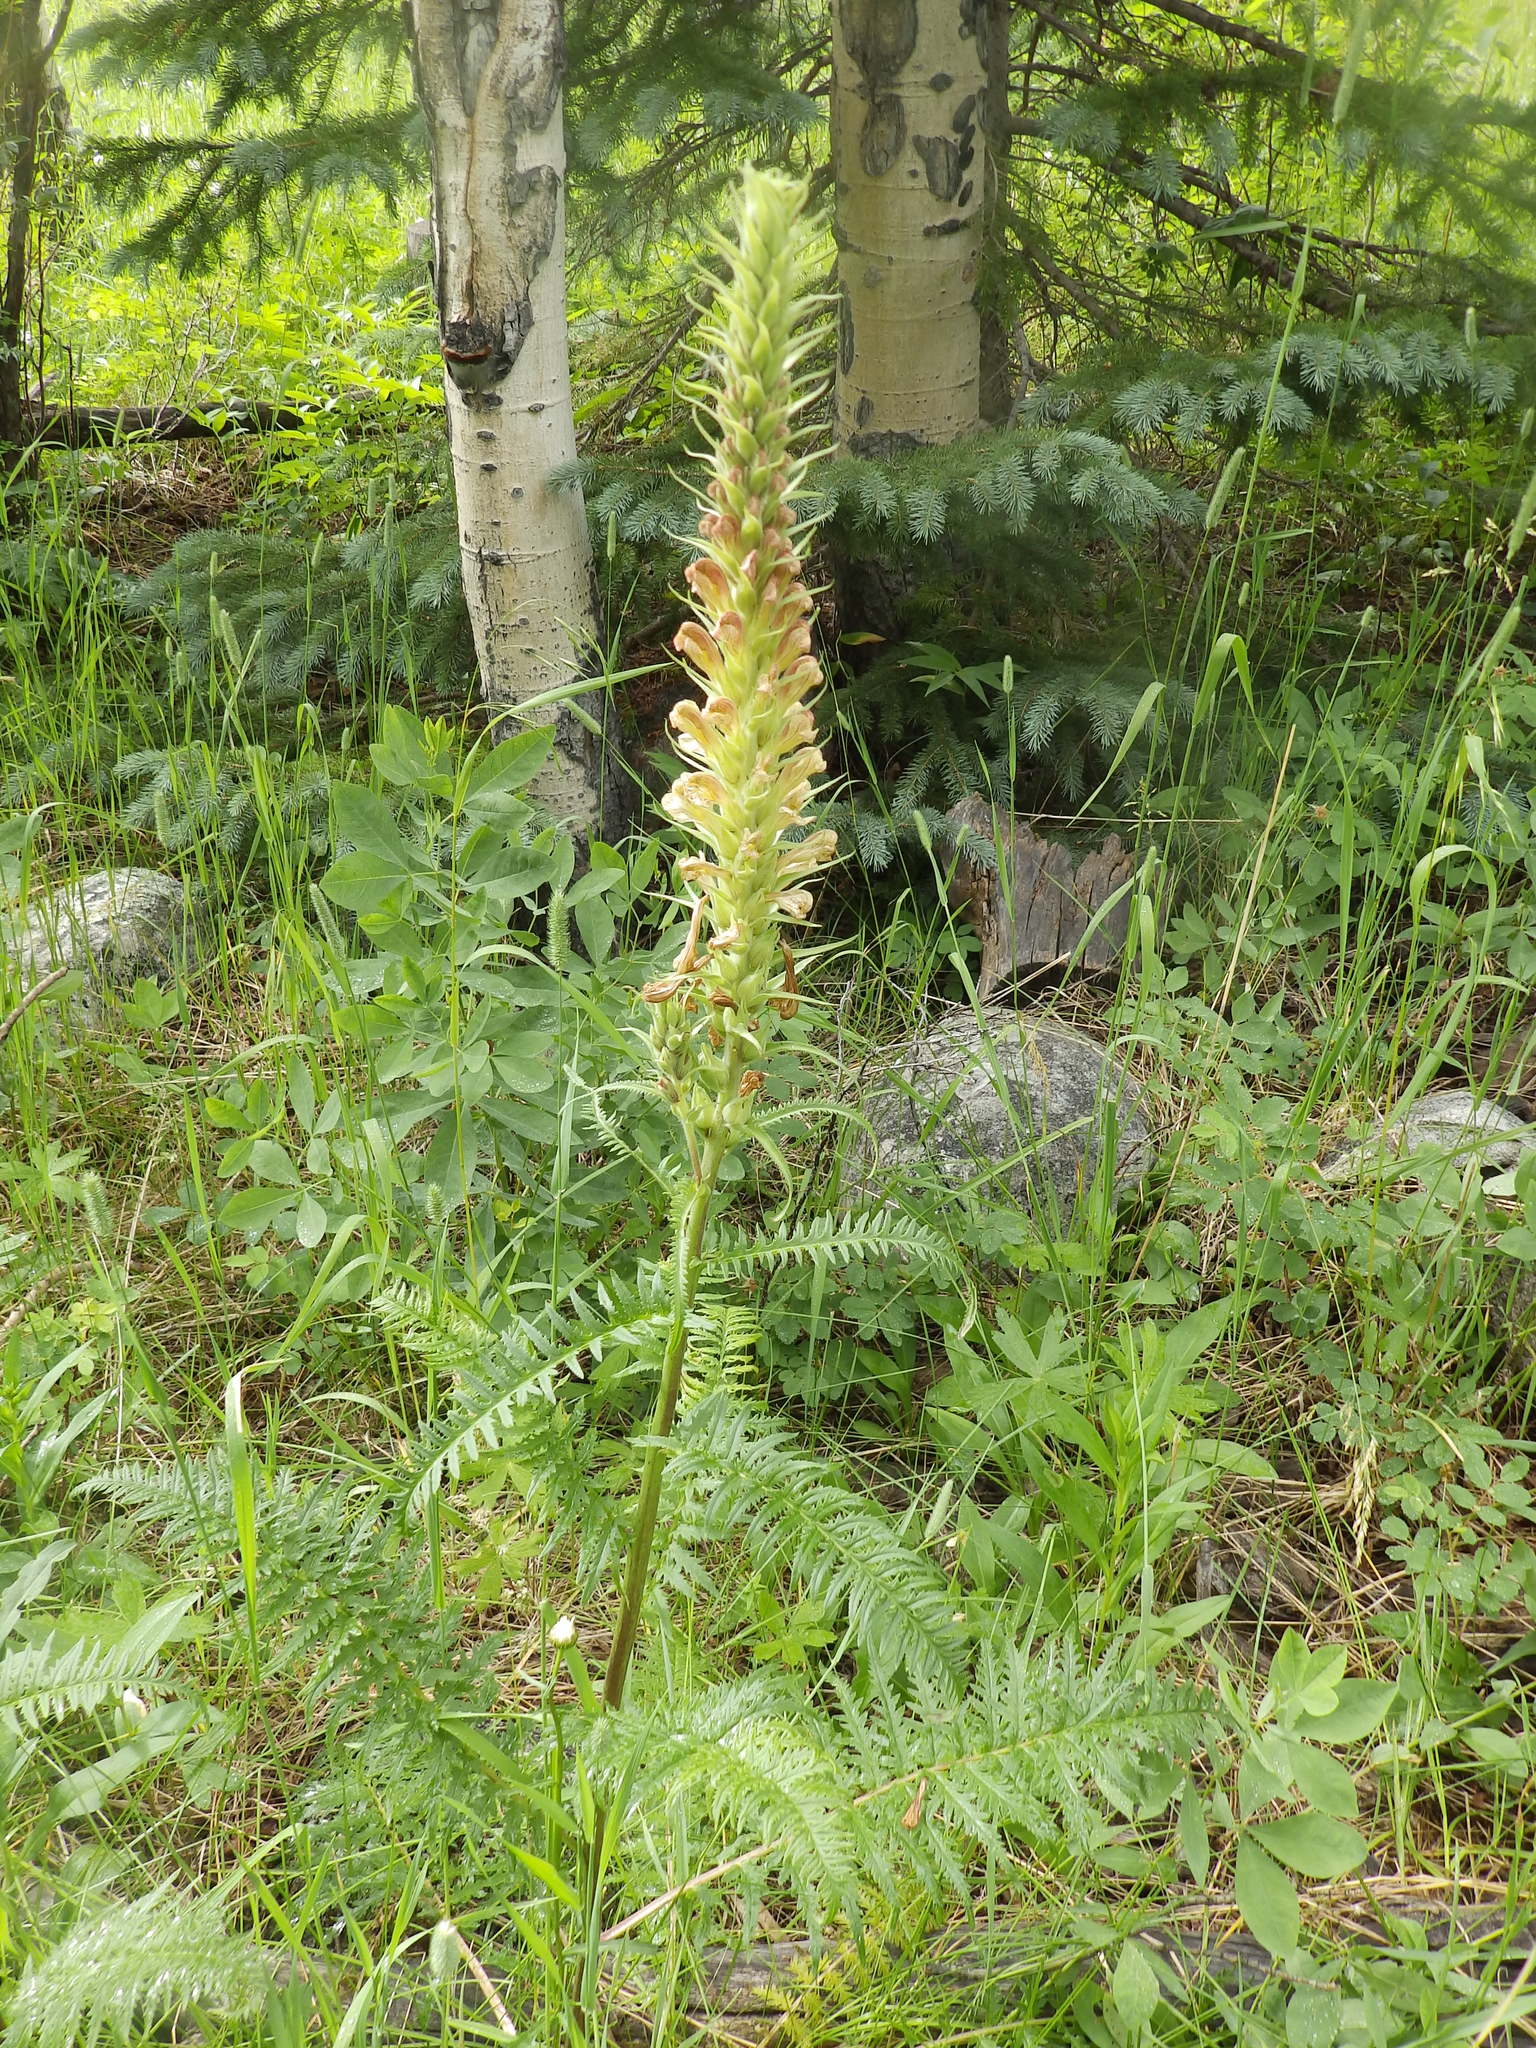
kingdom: Plantae
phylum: Tracheophyta
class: Magnoliopsida
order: Lamiales
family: Orobanchaceae
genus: Pedicularis
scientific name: Pedicularis procera
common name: Gray's lousewort
